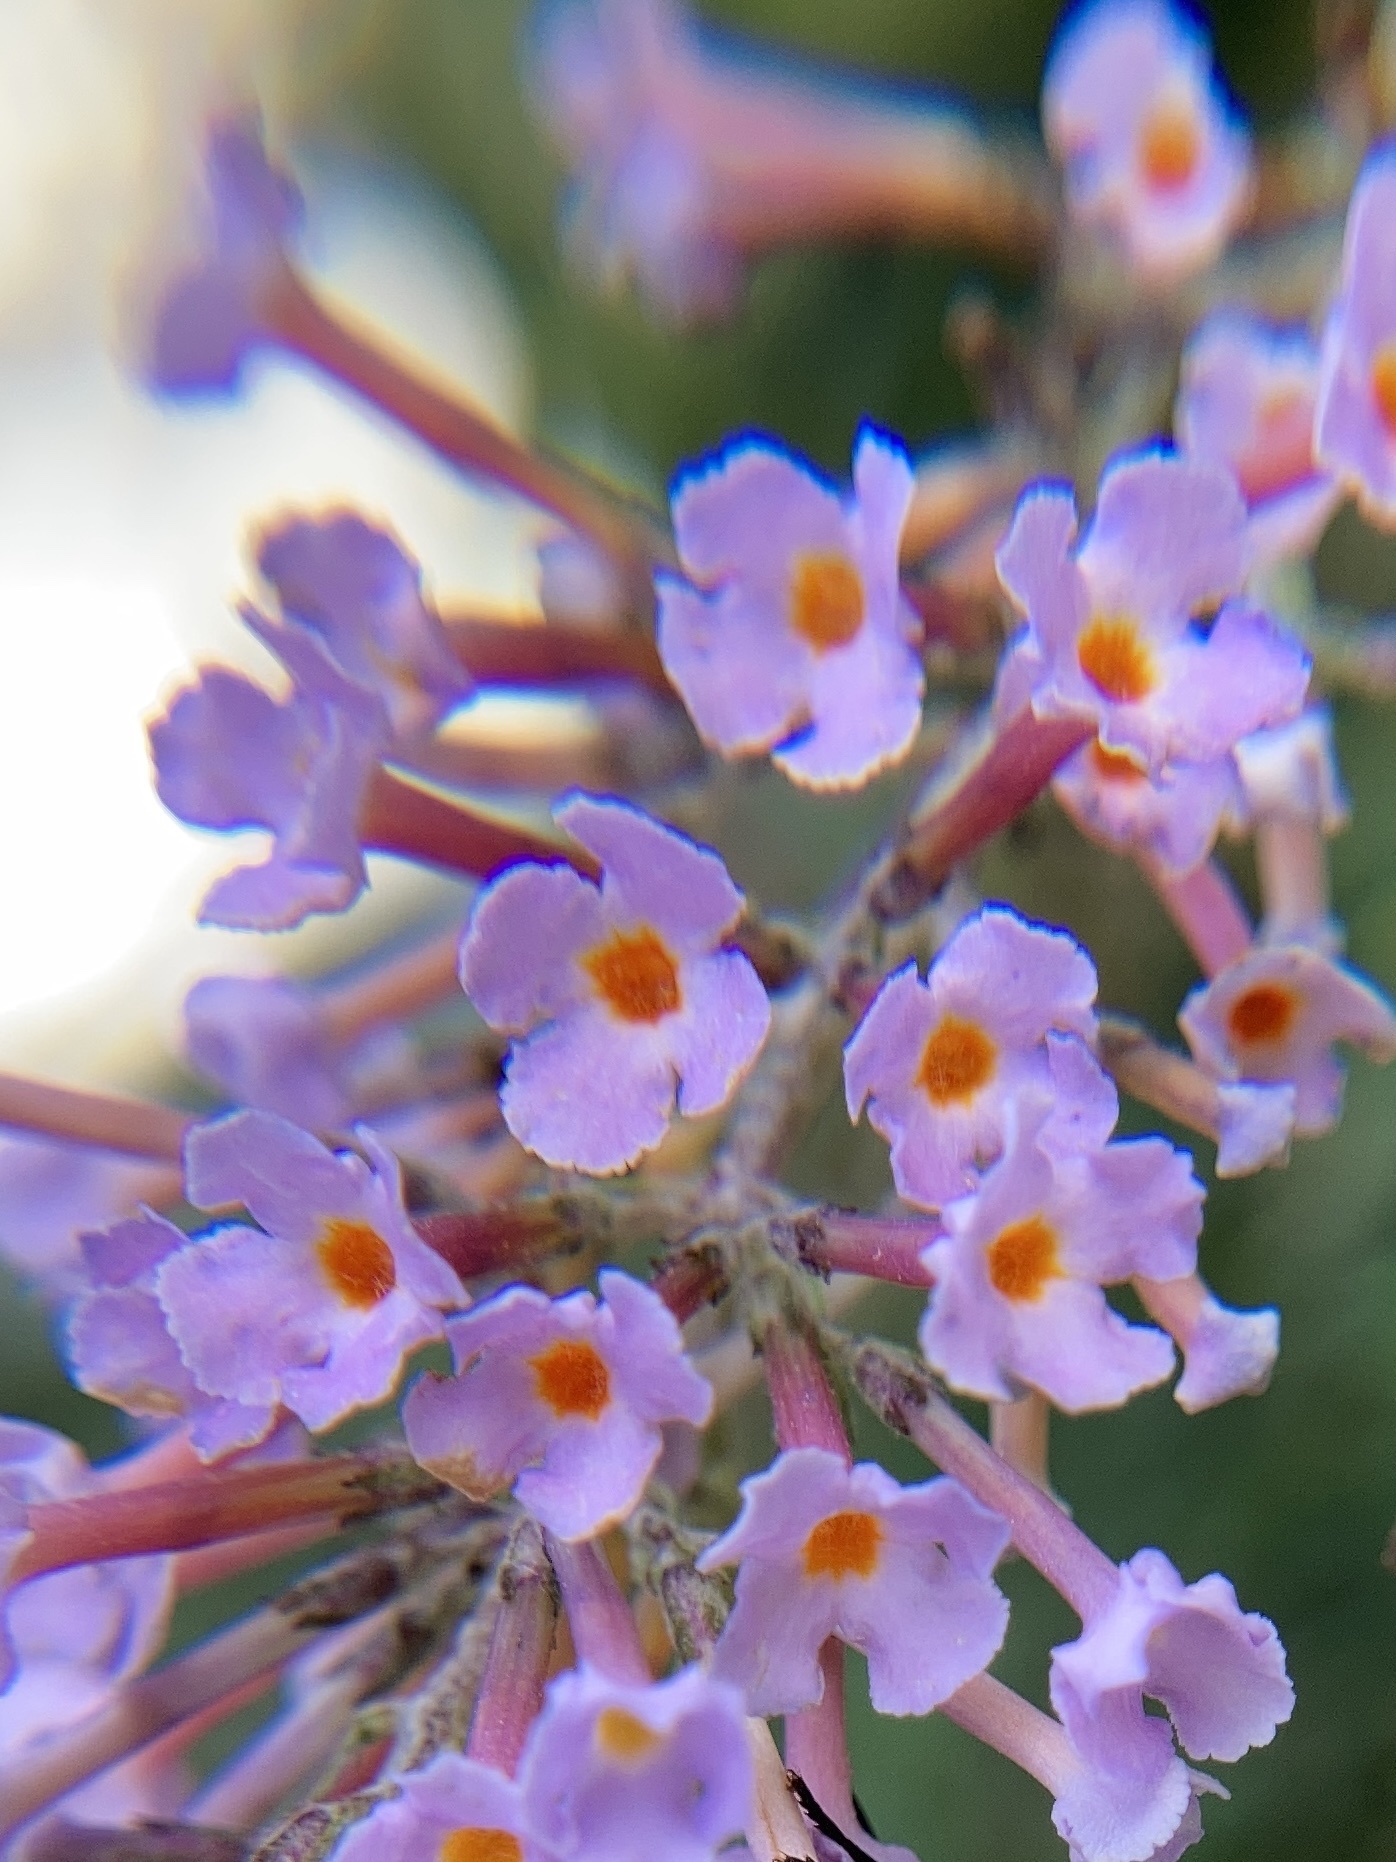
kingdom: Plantae
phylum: Tracheophyta
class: Magnoliopsida
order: Lamiales
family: Scrophulariaceae
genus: Buddleja
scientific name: Buddleja davidii
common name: Butterfly-bush
